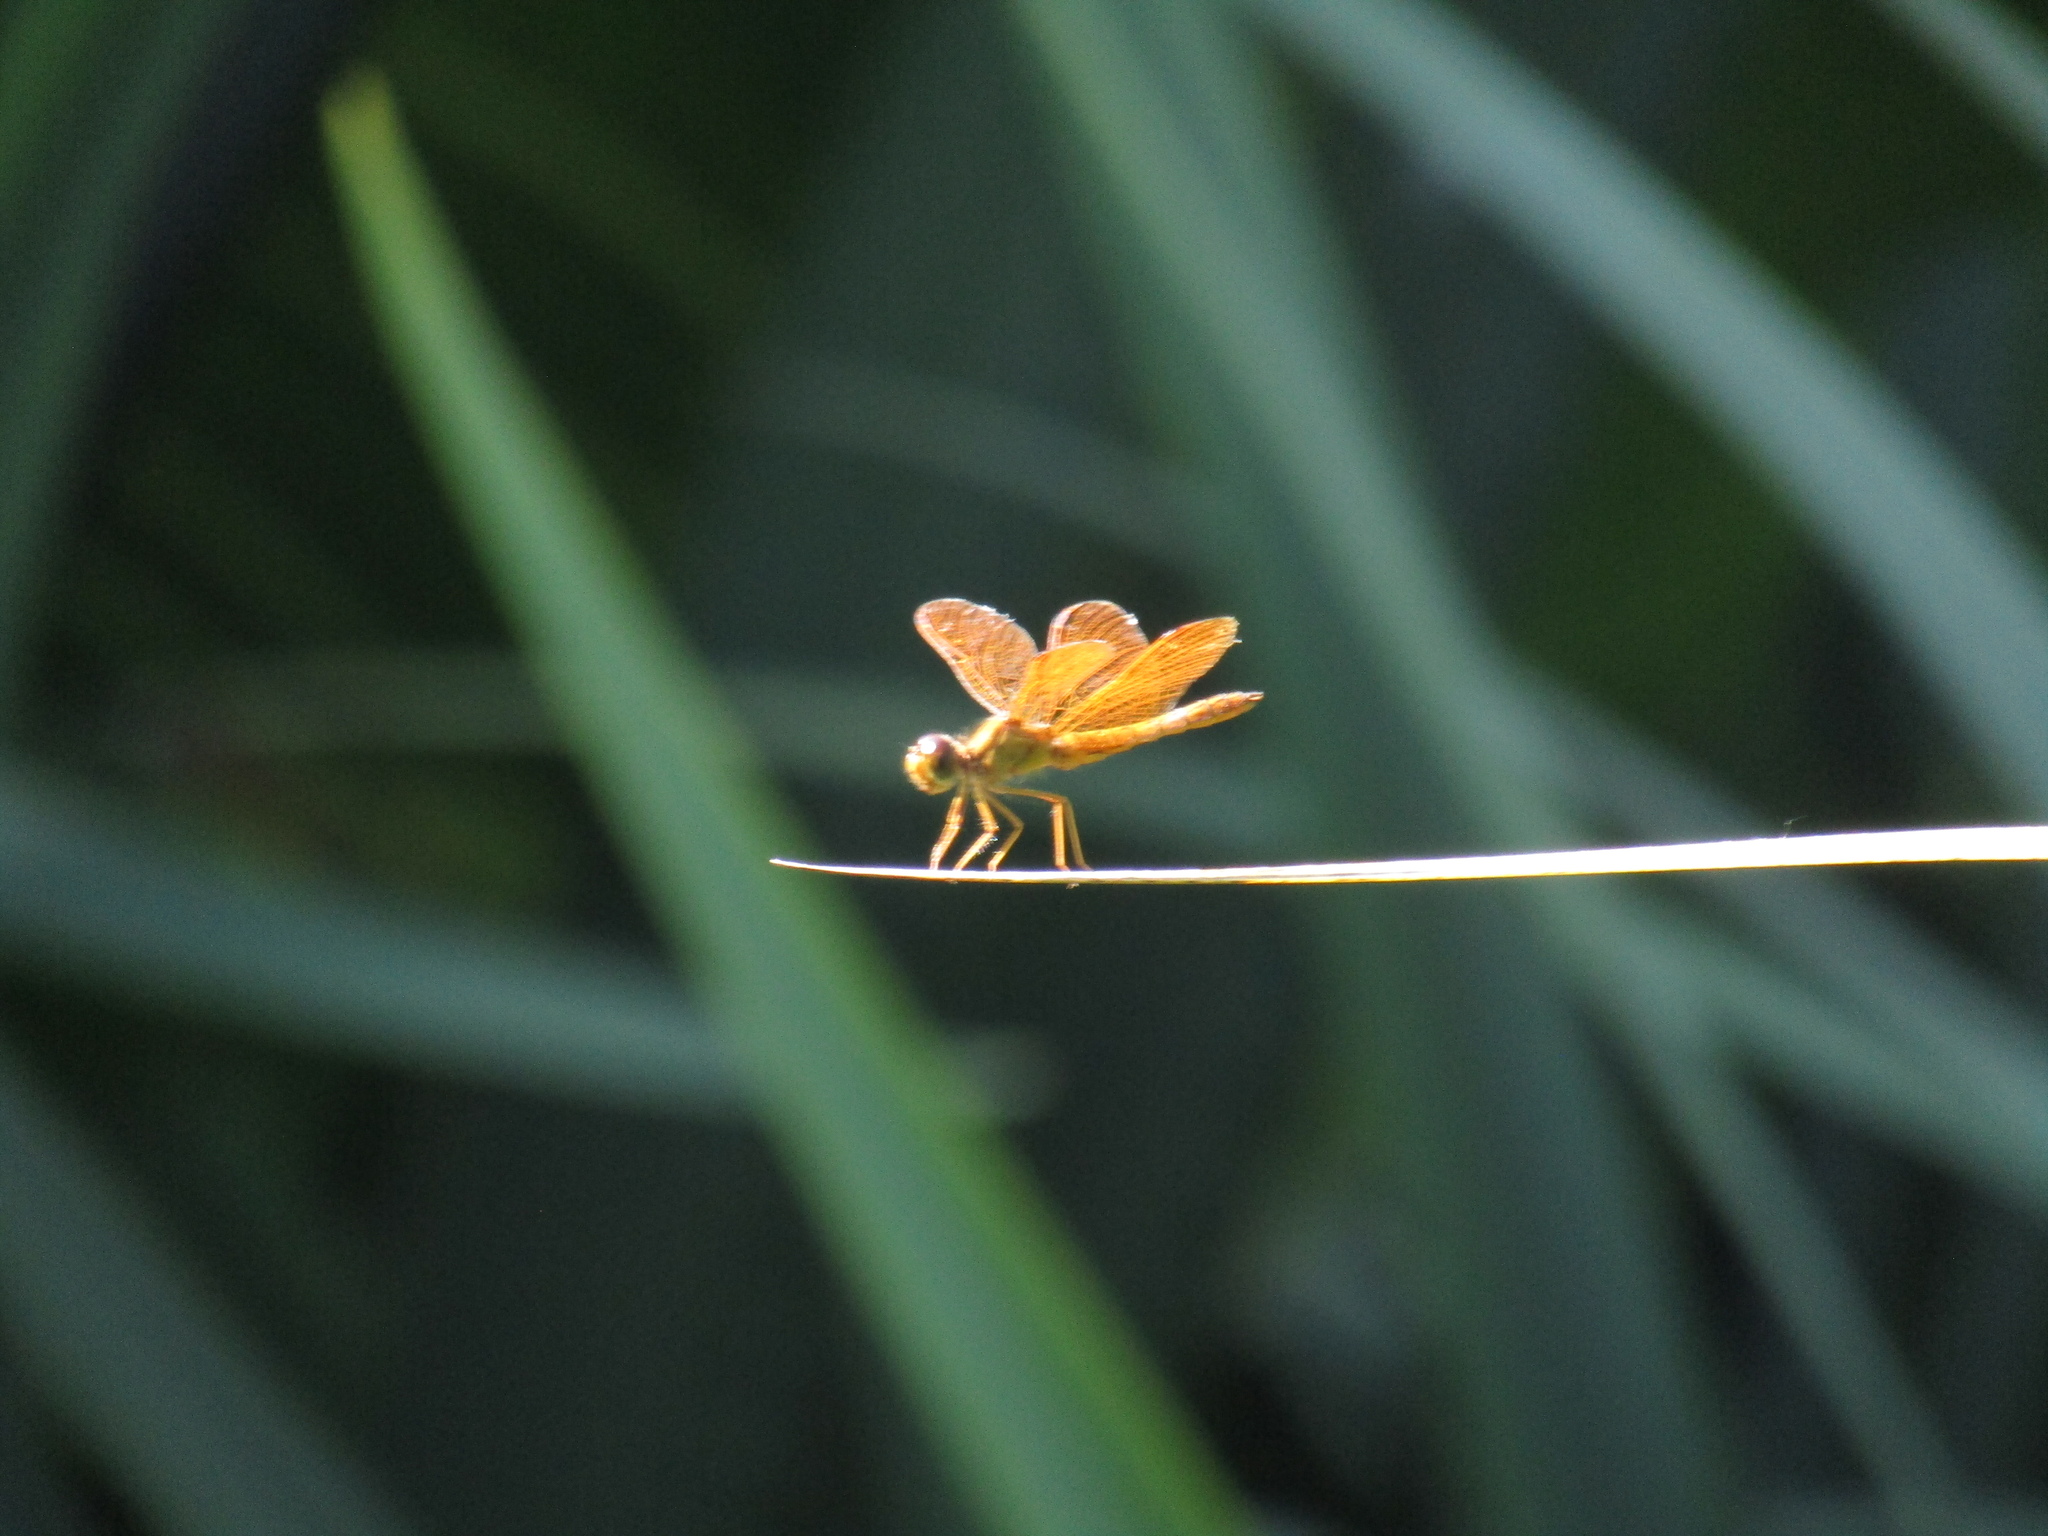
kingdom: Animalia
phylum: Arthropoda
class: Insecta
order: Odonata
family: Libellulidae
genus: Perithemis
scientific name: Perithemis icteroptera
